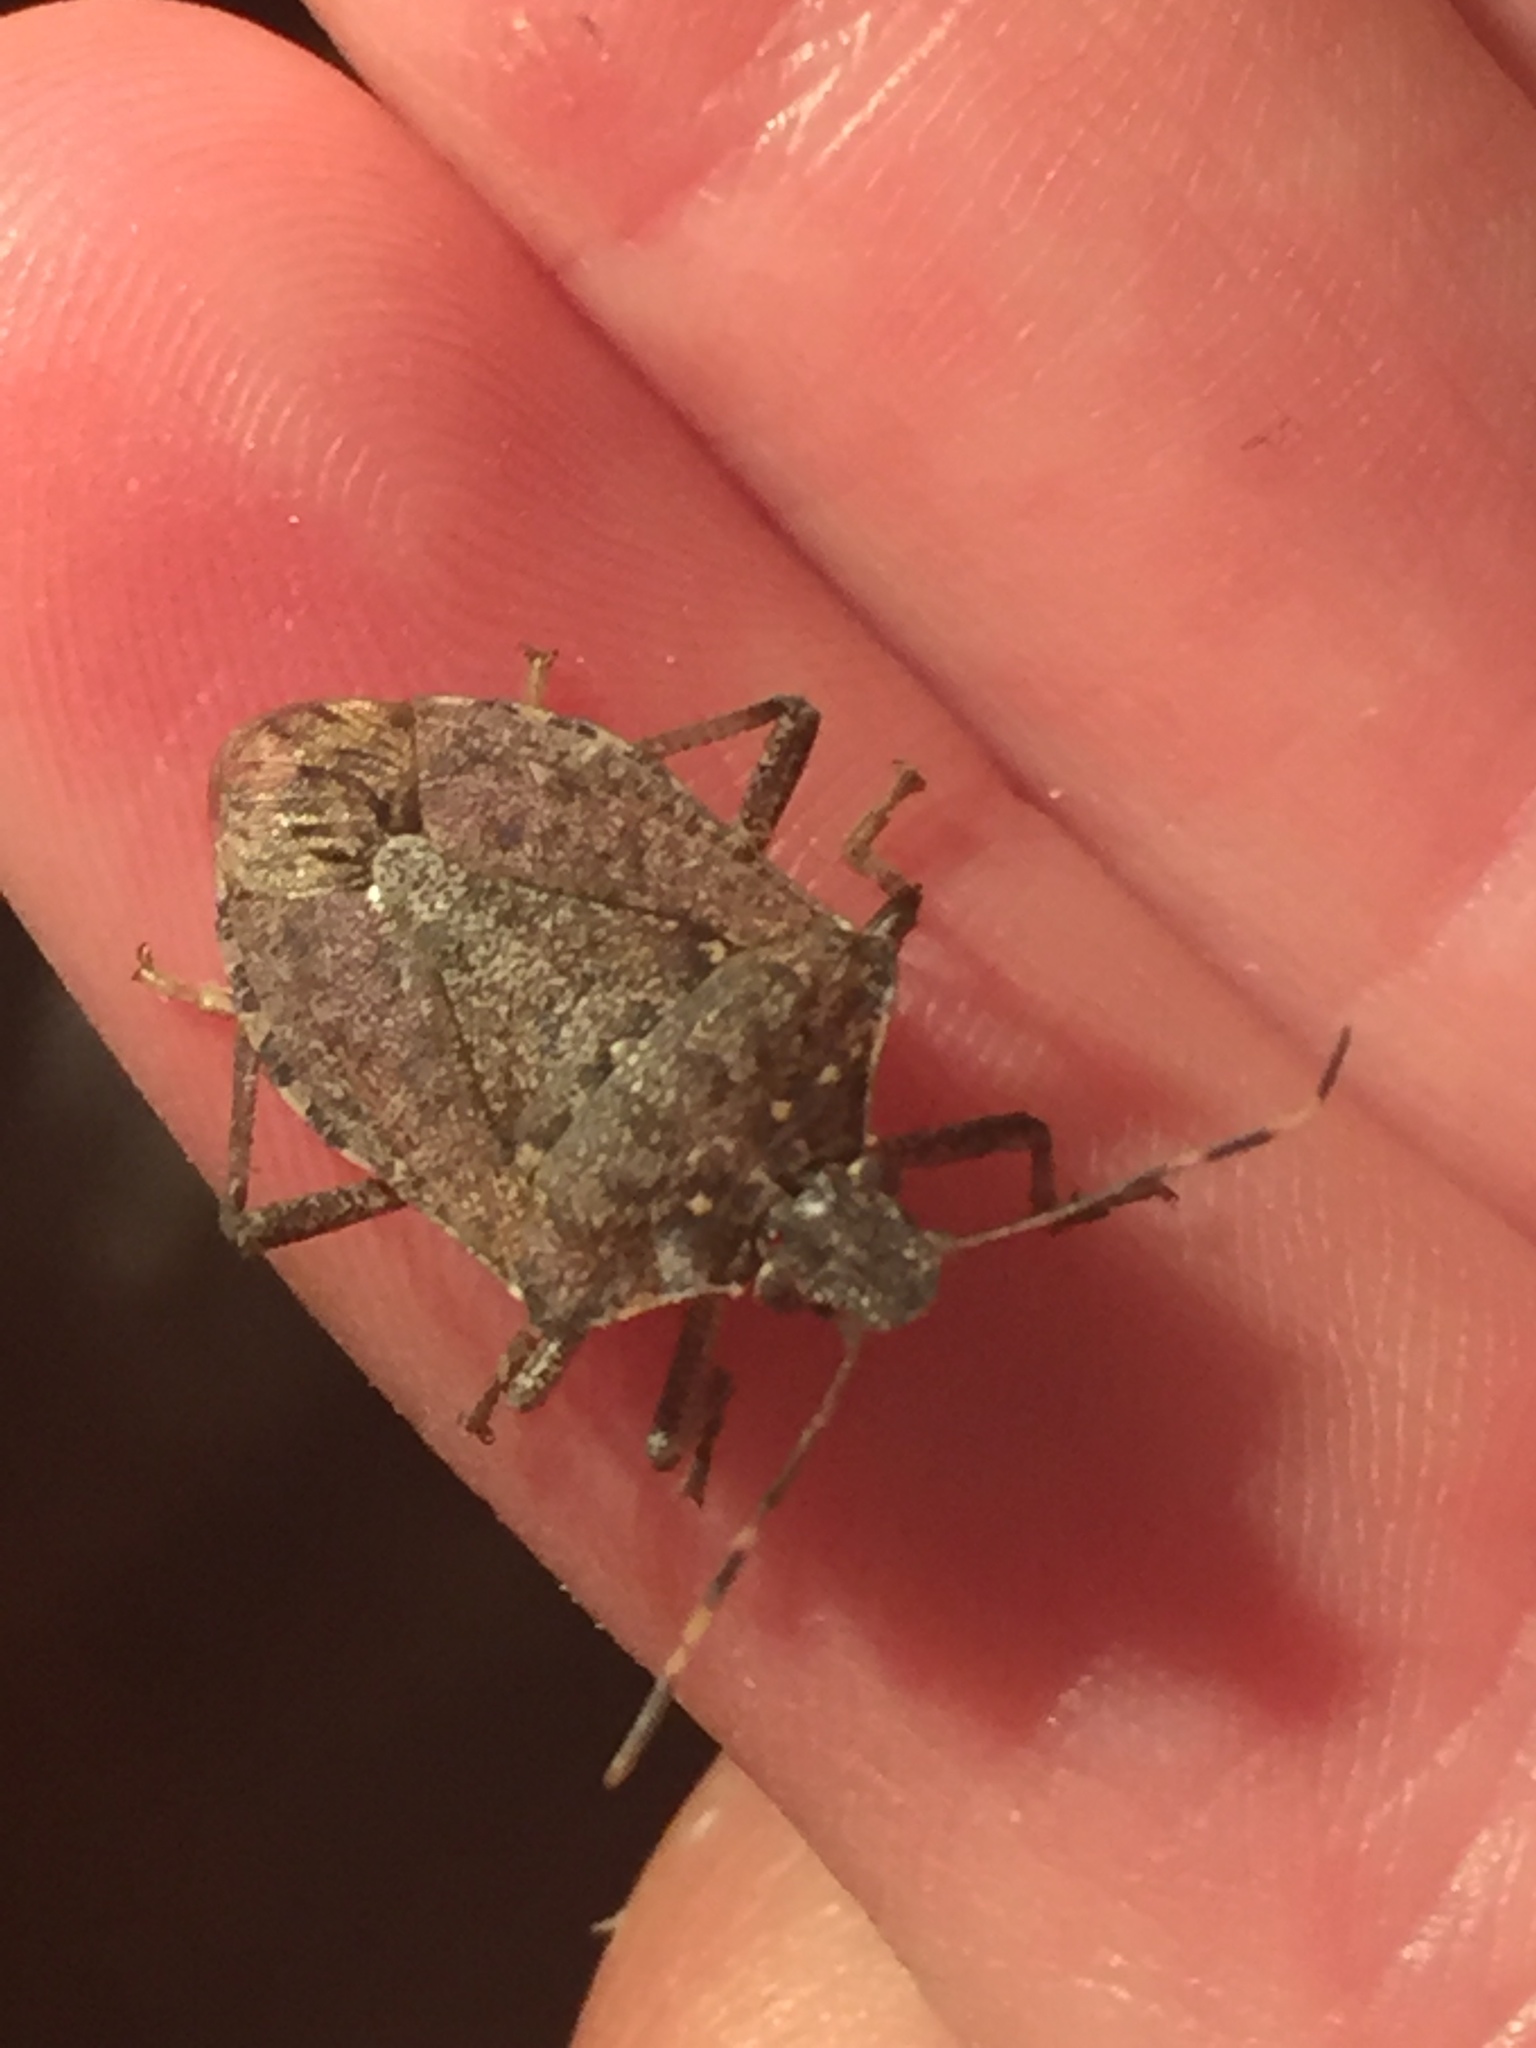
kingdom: Animalia
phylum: Arthropoda
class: Insecta
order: Hemiptera
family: Pentatomidae
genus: Halyomorpha
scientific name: Halyomorpha halys
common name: Brown marmorated stink bug
